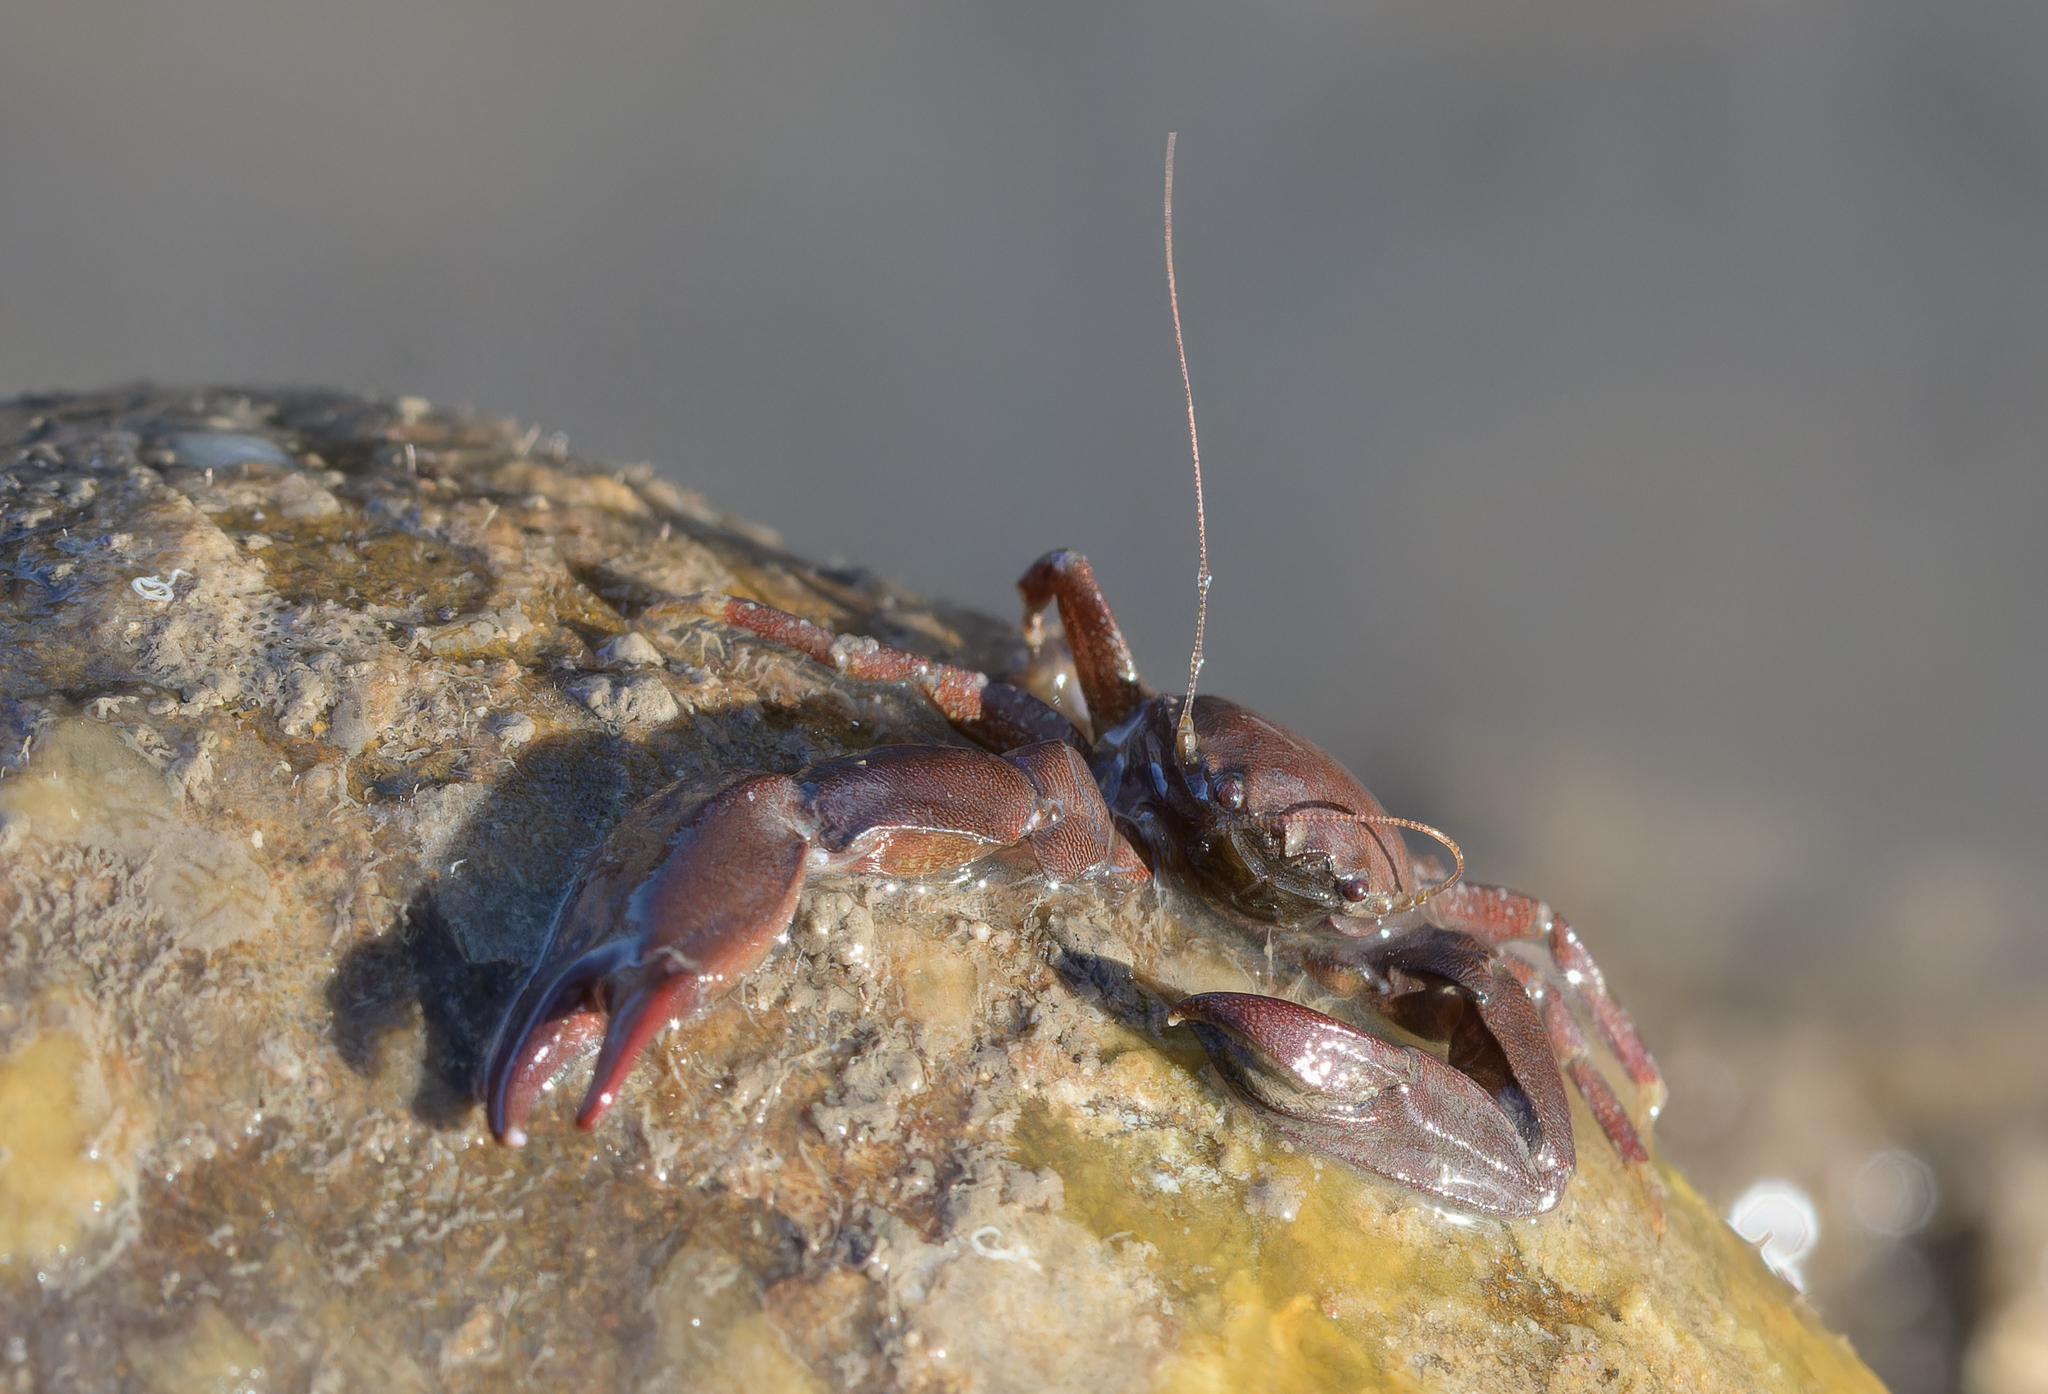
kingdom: Animalia
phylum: Arthropoda
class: Malacostraca
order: Decapoda
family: Porcellanidae
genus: Pisidia
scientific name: Pisidia longicornis
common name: Long clawed porcelain crab
